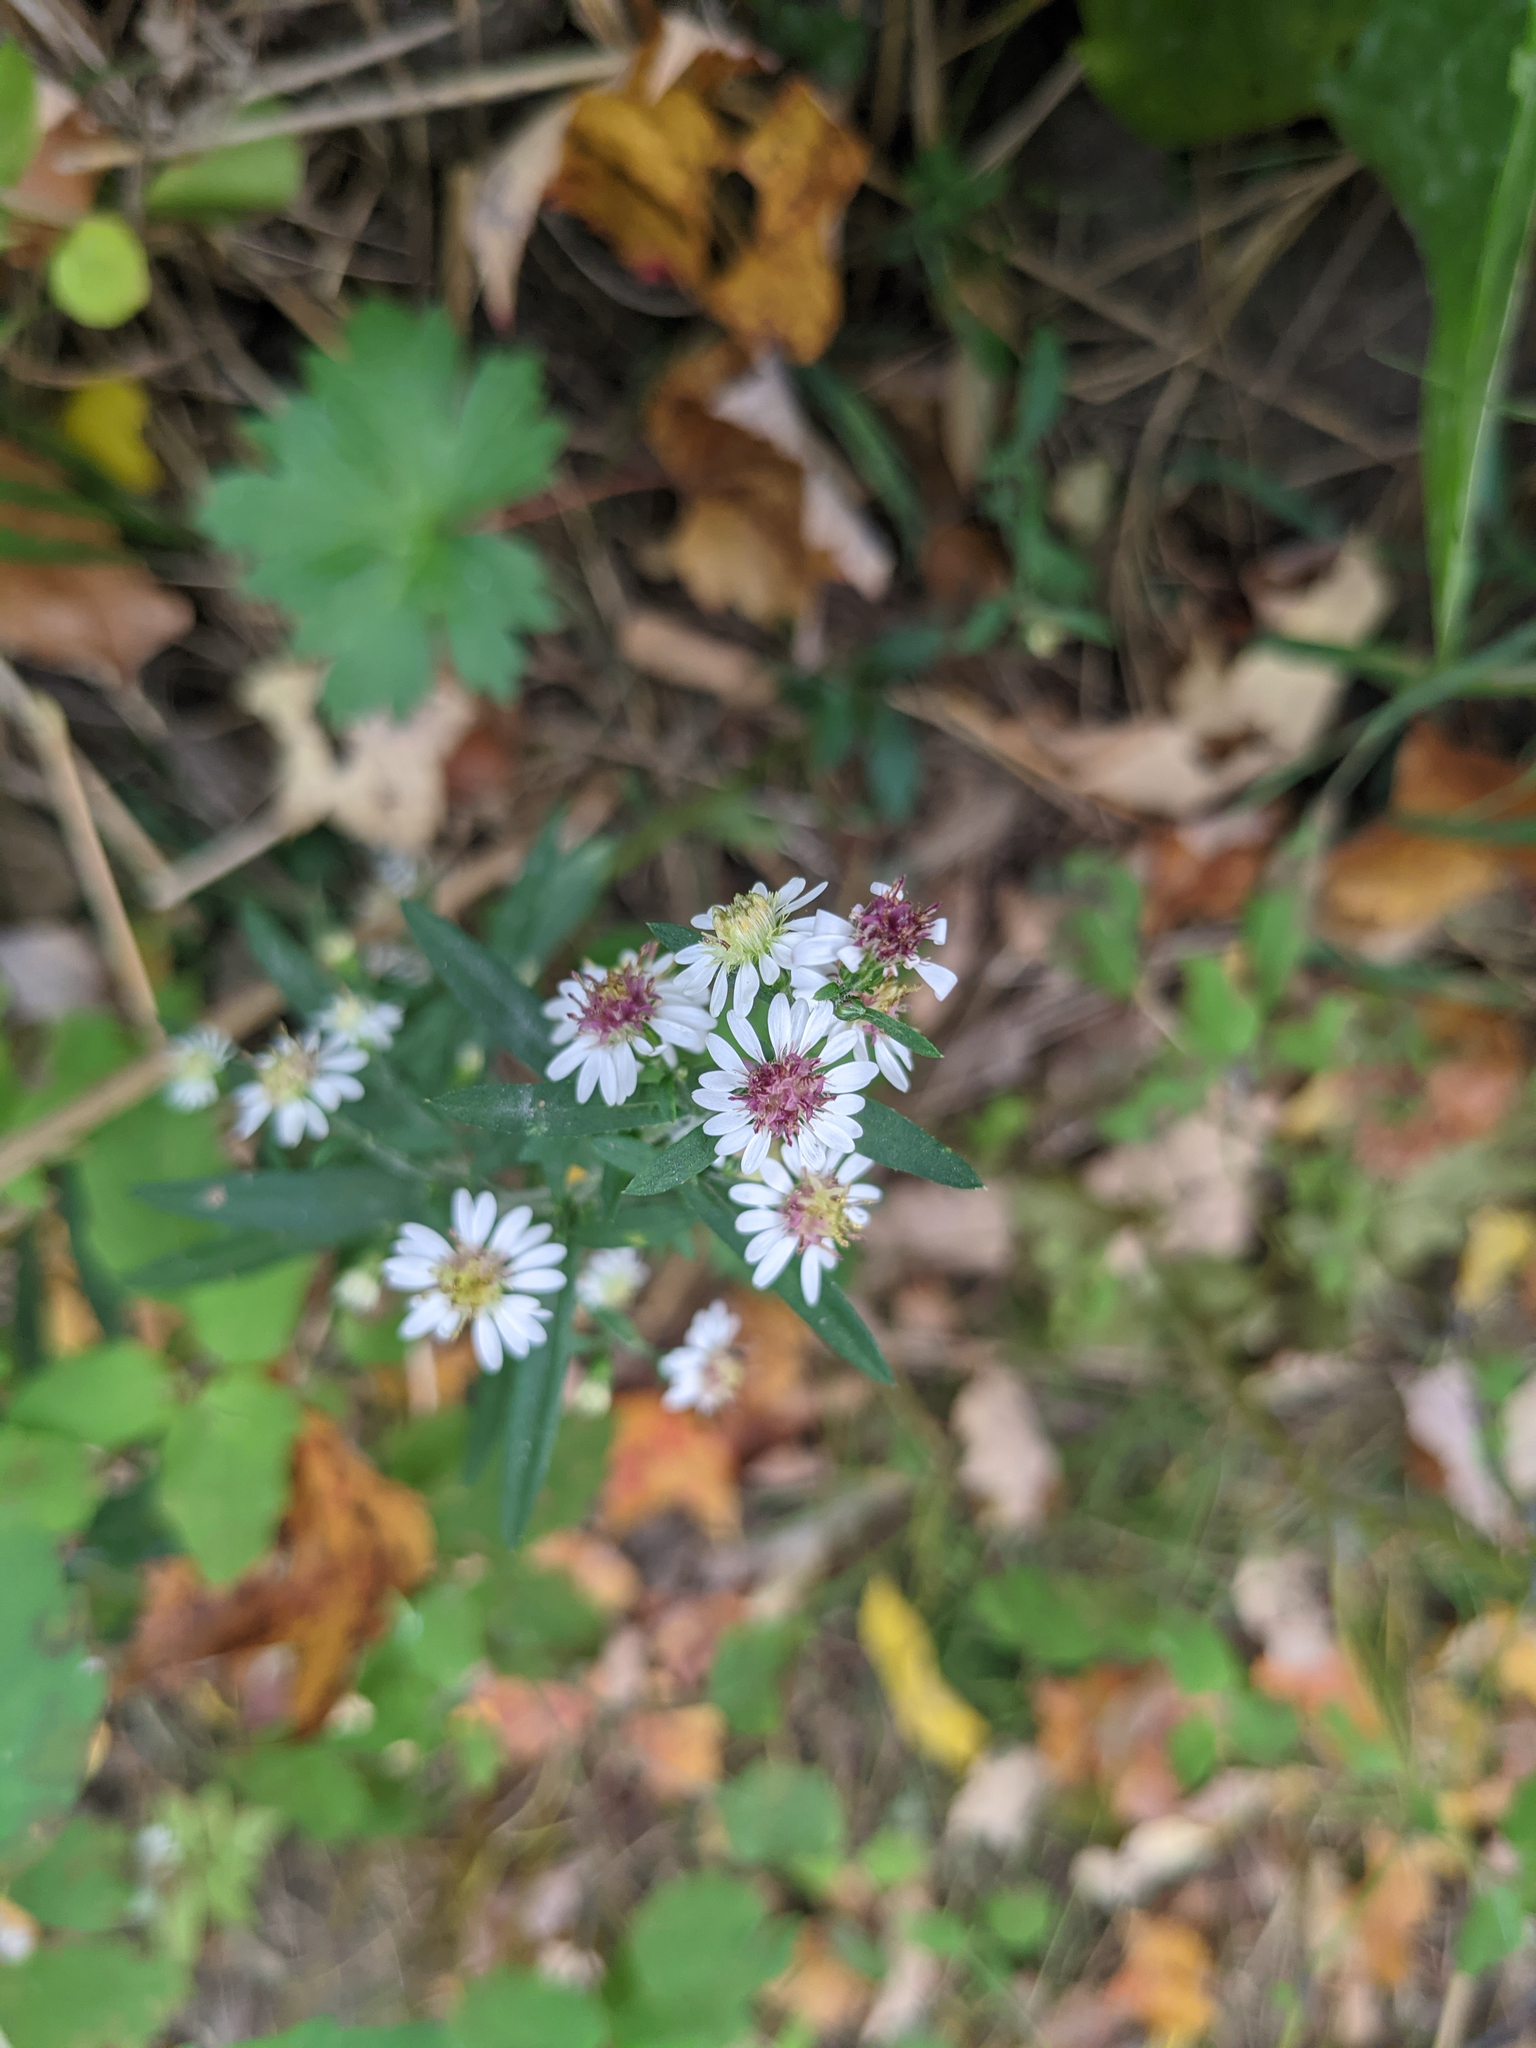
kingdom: Plantae
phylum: Tracheophyta
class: Magnoliopsida
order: Asterales
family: Asteraceae
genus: Symphyotrichum
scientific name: Symphyotrichum lateriflorum
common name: Calico aster
